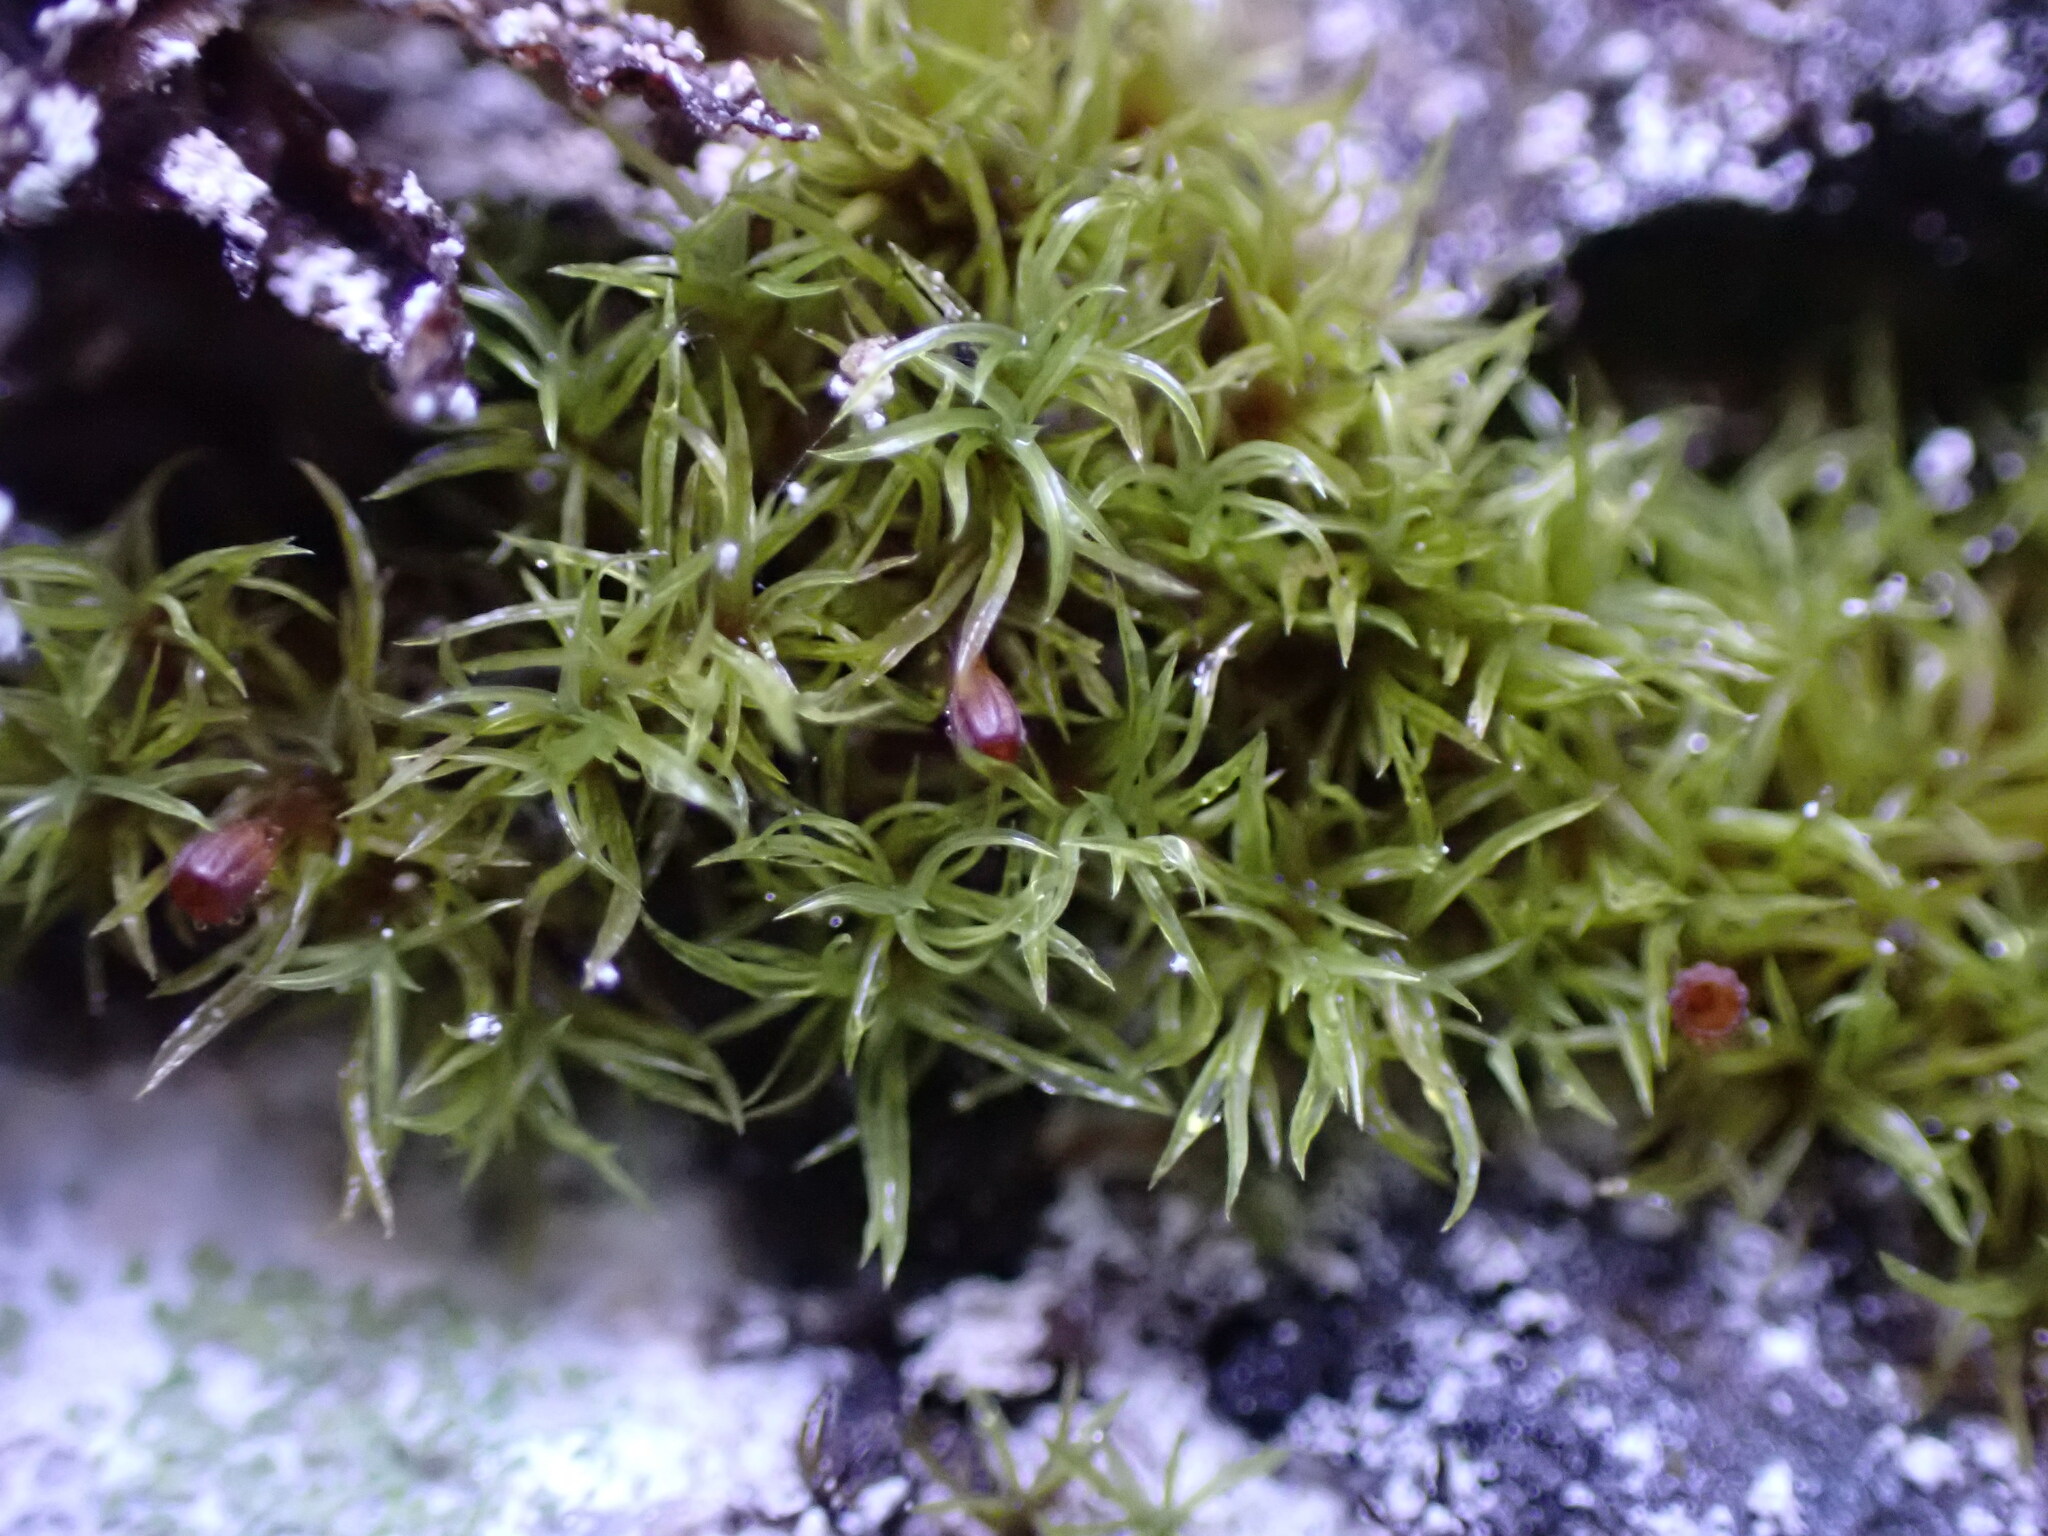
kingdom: Plantae
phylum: Bryophyta
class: Bryopsida
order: Dicranales
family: Amphidiaceae
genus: Amphidium
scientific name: Amphidium lapponicum
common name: Lapland yoke moss
